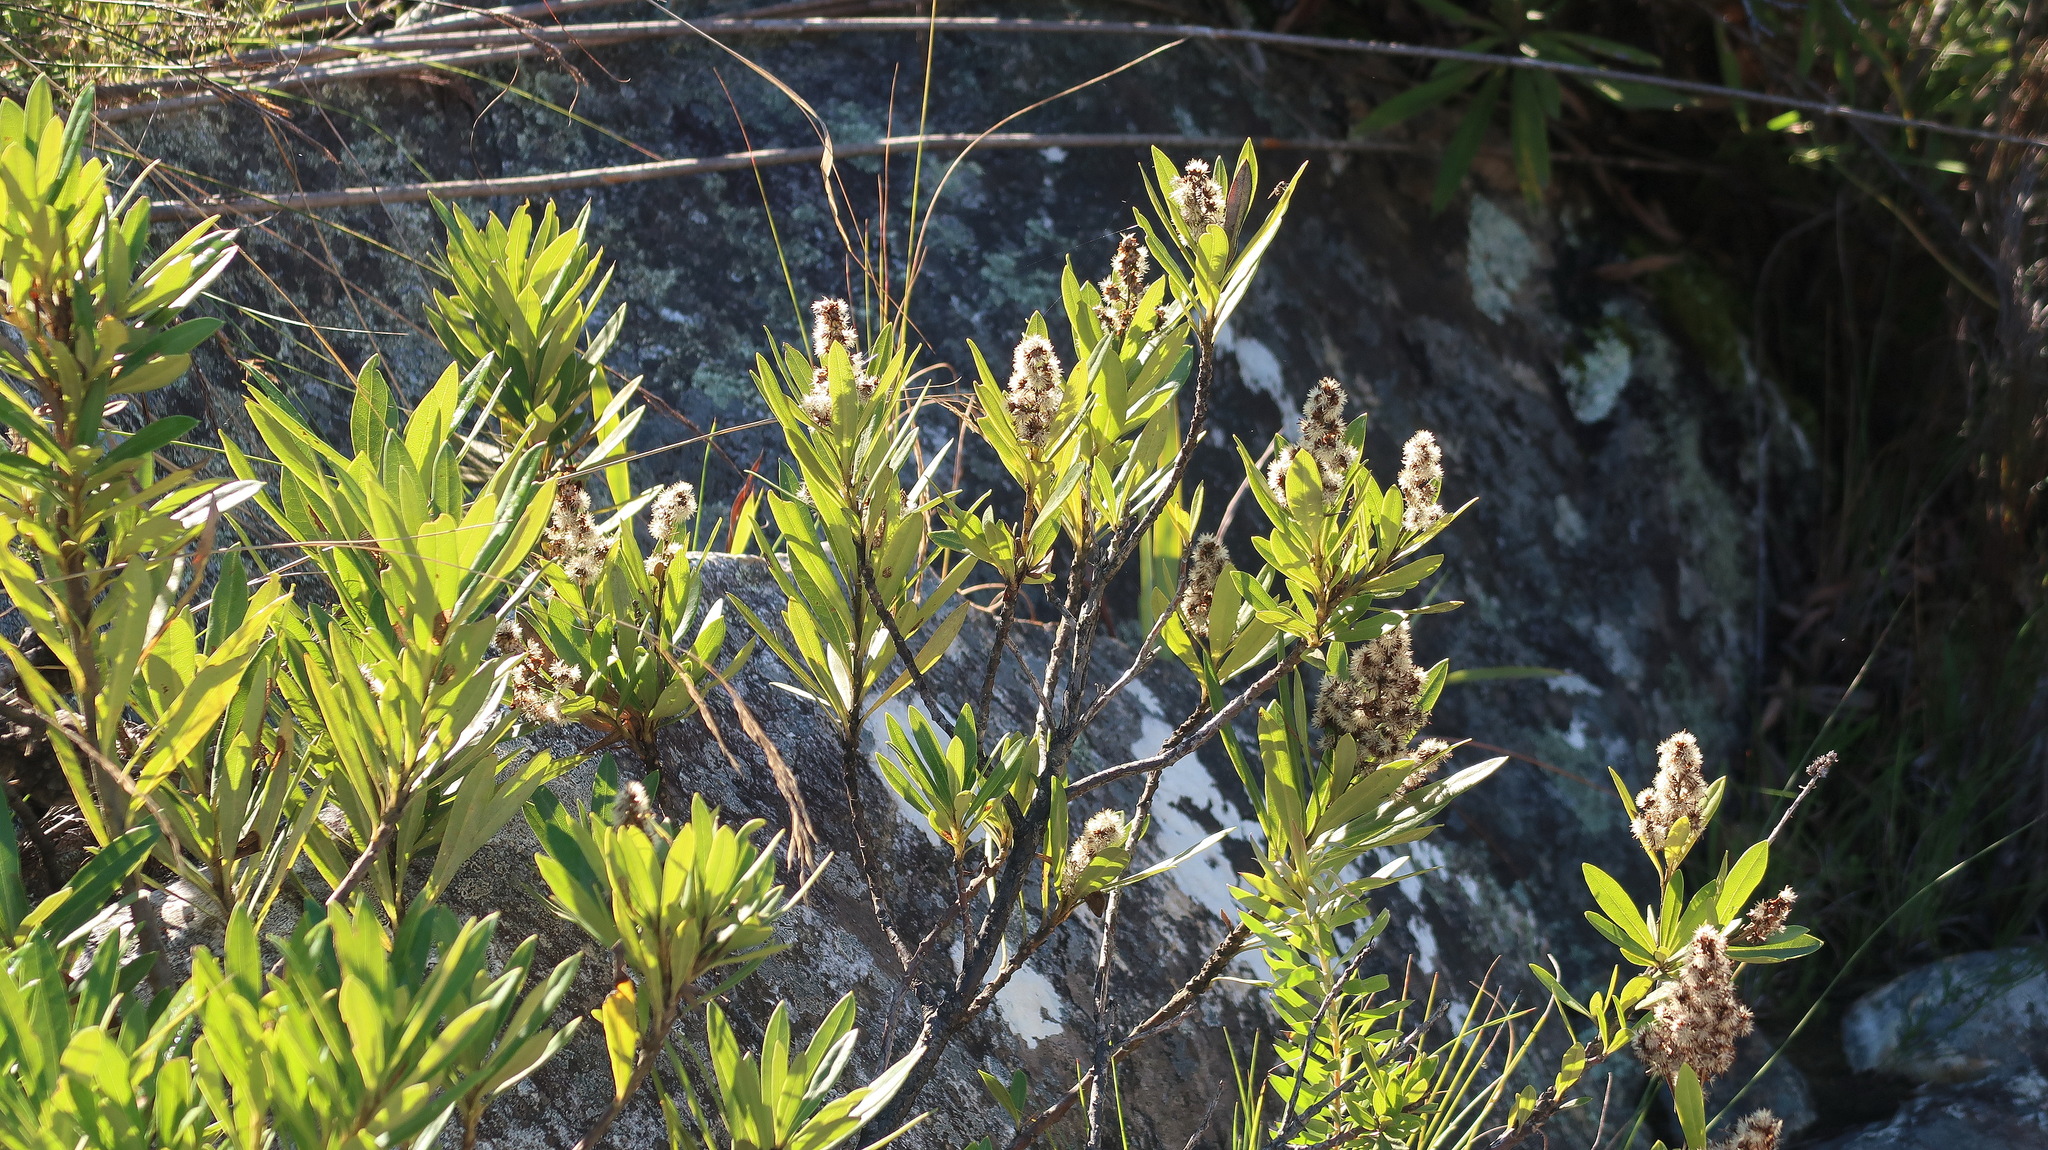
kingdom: Plantae
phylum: Tracheophyta
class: Magnoliopsida
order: Asterales
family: Asteraceae
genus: Brachylaena
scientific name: Brachylaena neriifolia
